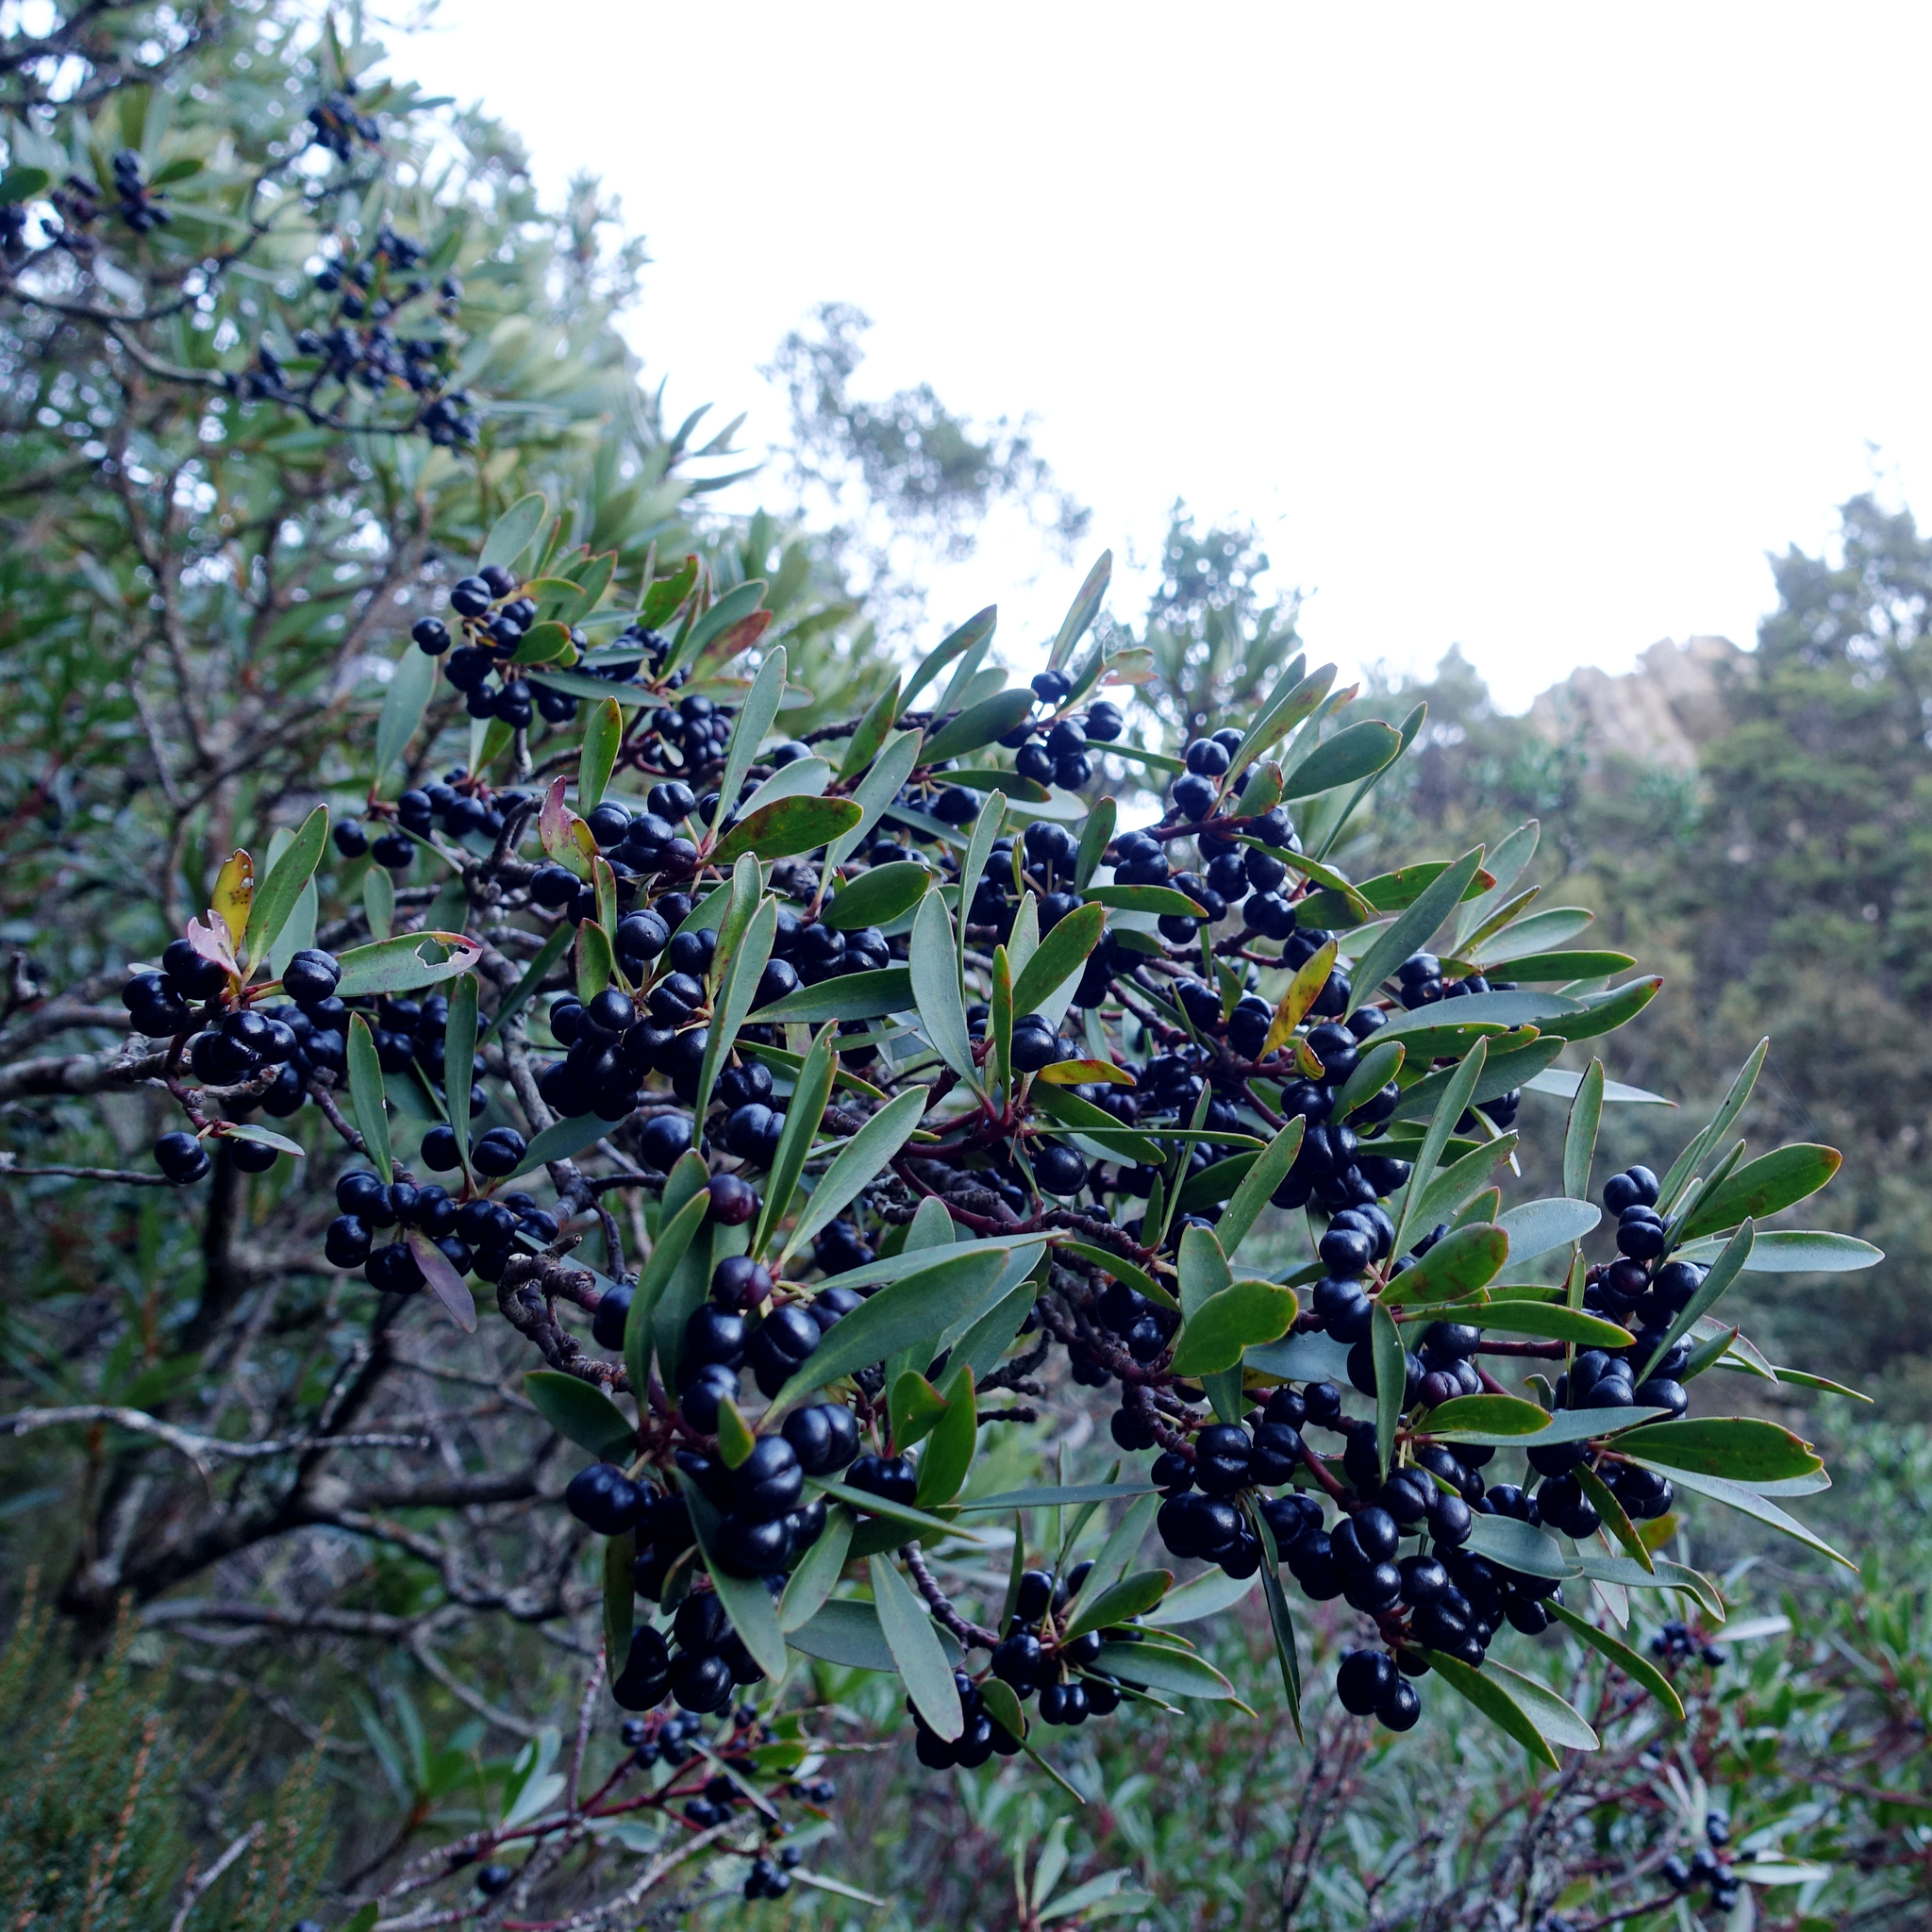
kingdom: Plantae
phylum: Tracheophyta
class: Magnoliopsida
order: Canellales
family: Winteraceae
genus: Drimys
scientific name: Drimys aromatica
